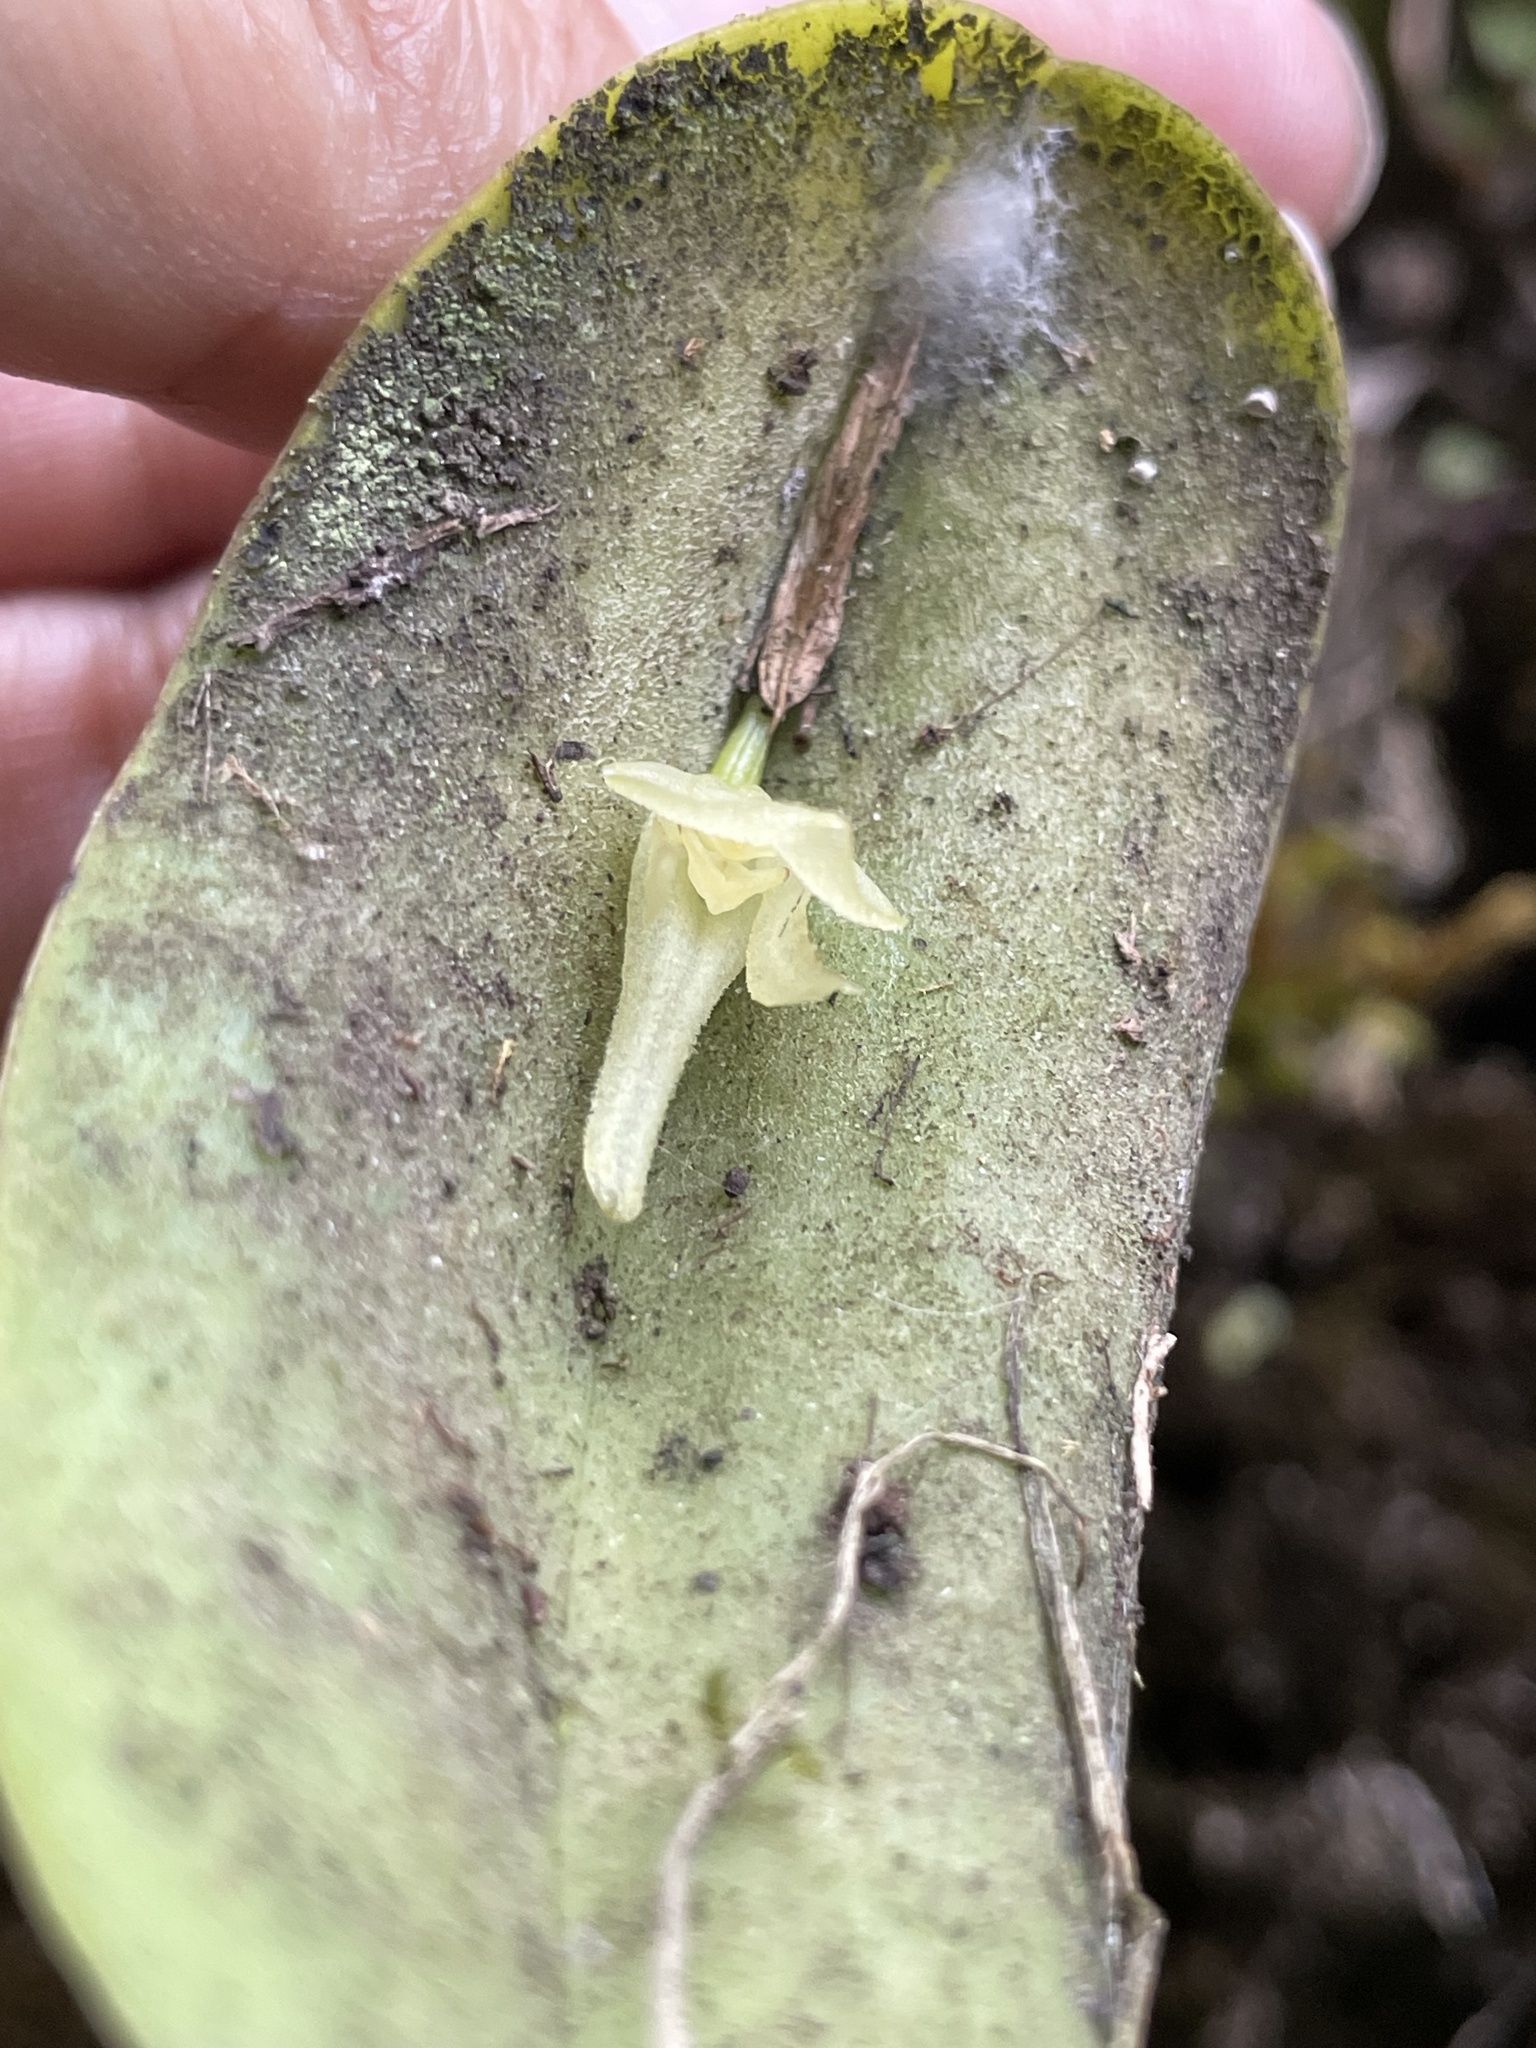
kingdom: Plantae
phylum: Tracheophyta
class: Liliopsida
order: Asparagales
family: Orchidaceae
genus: Pleurothallis
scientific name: Pleurothallis apopsis
